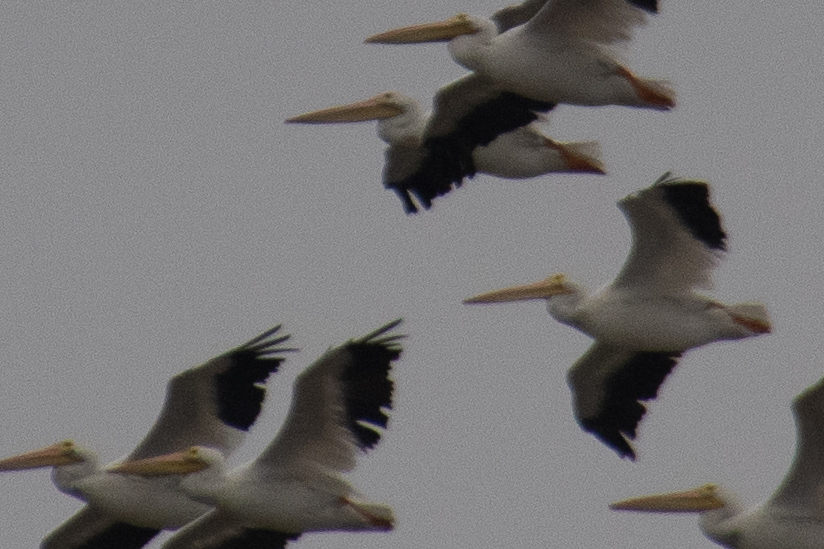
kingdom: Animalia
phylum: Chordata
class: Aves
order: Pelecaniformes
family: Pelecanidae
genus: Pelecanus
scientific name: Pelecanus erythrorhynchos
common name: American white pelican
